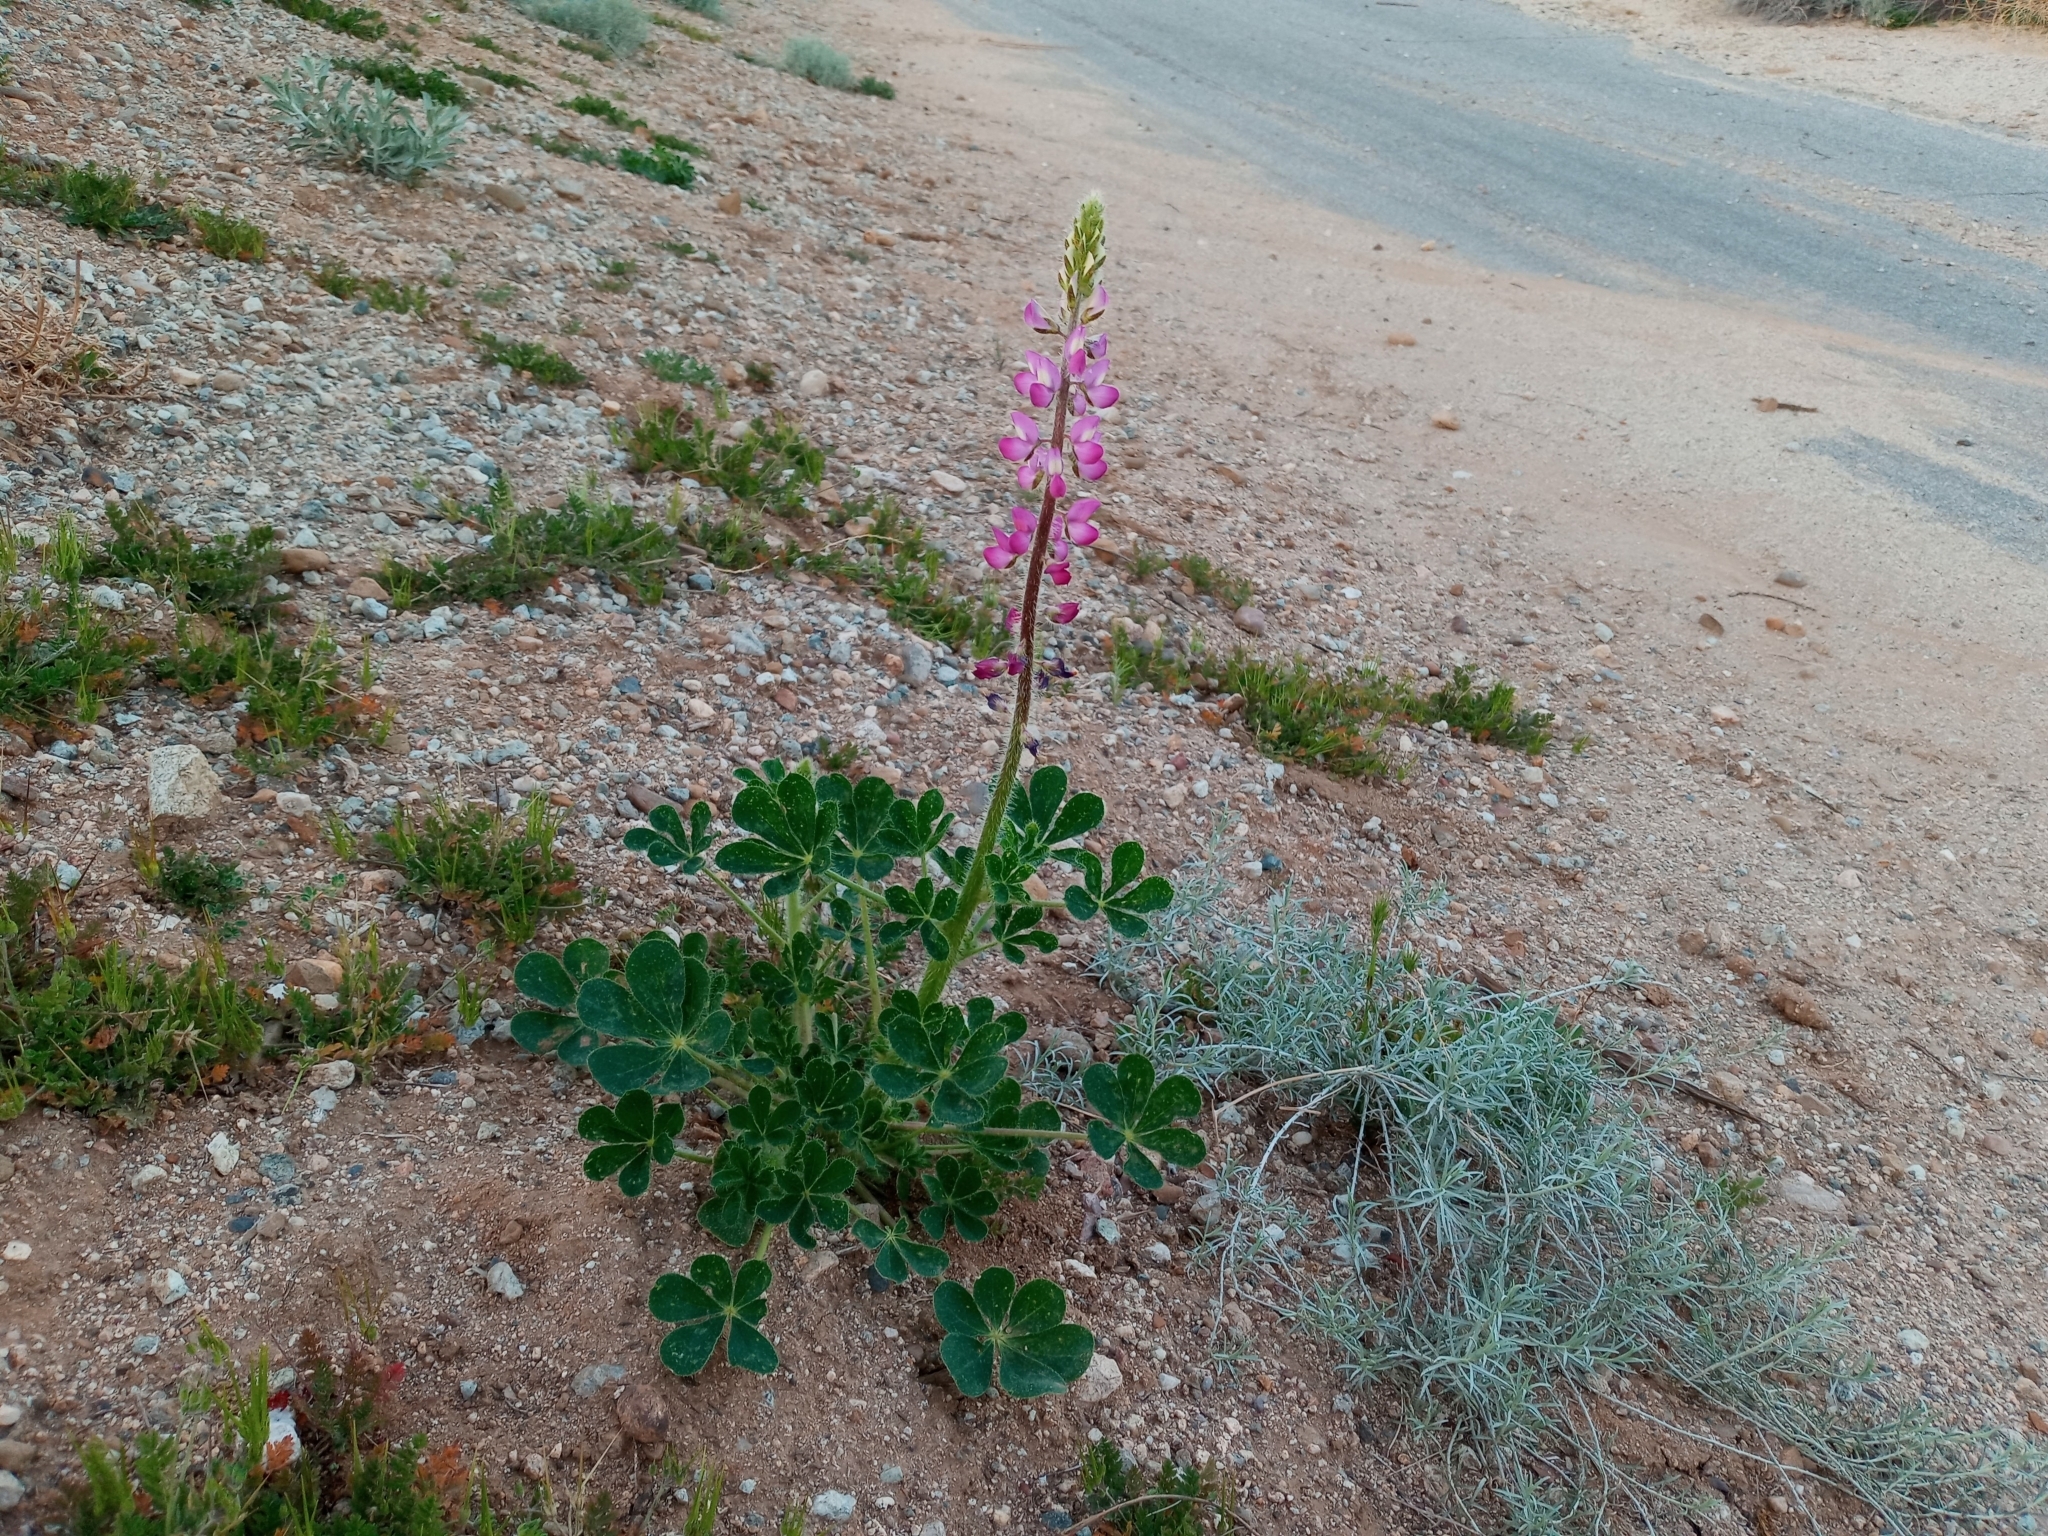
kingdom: Plantae
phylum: Tracheophyta
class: Magnoliopsida
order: Fabales
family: Fabaceae
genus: Lupinus
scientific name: Lupinus hirsutissimus
